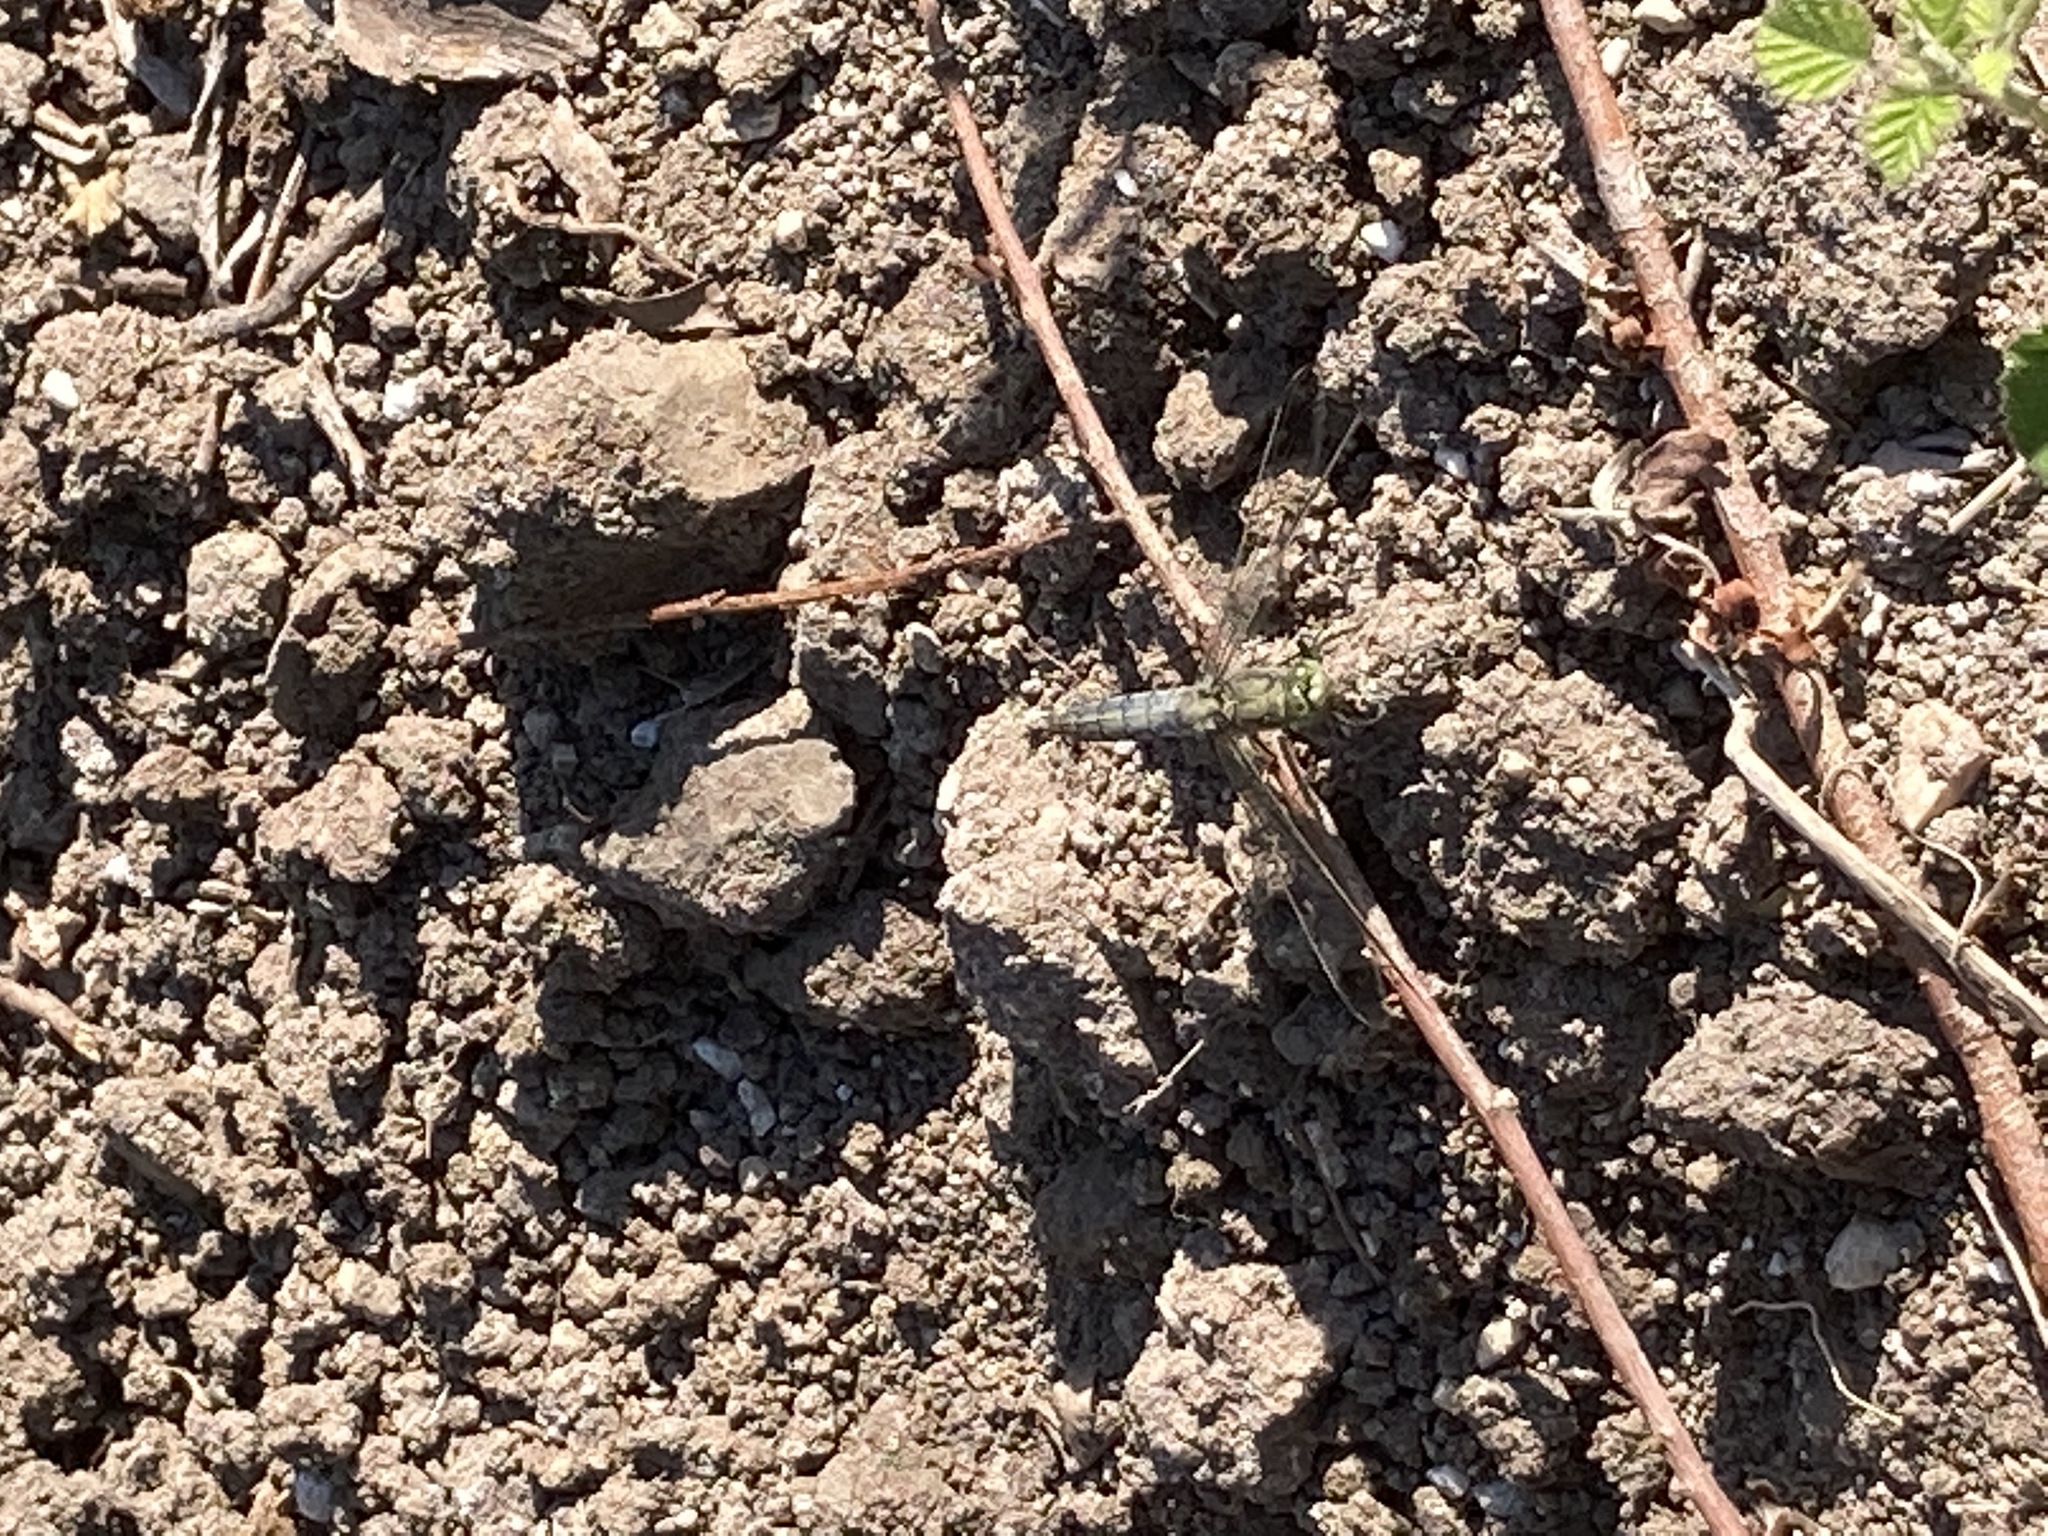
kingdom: Animalia
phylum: Arthropoda
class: Insecta
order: Odonata
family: Libellulidae
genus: Orthetrum
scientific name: Orthetrum cancellatum
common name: Black-tailed skimmer
